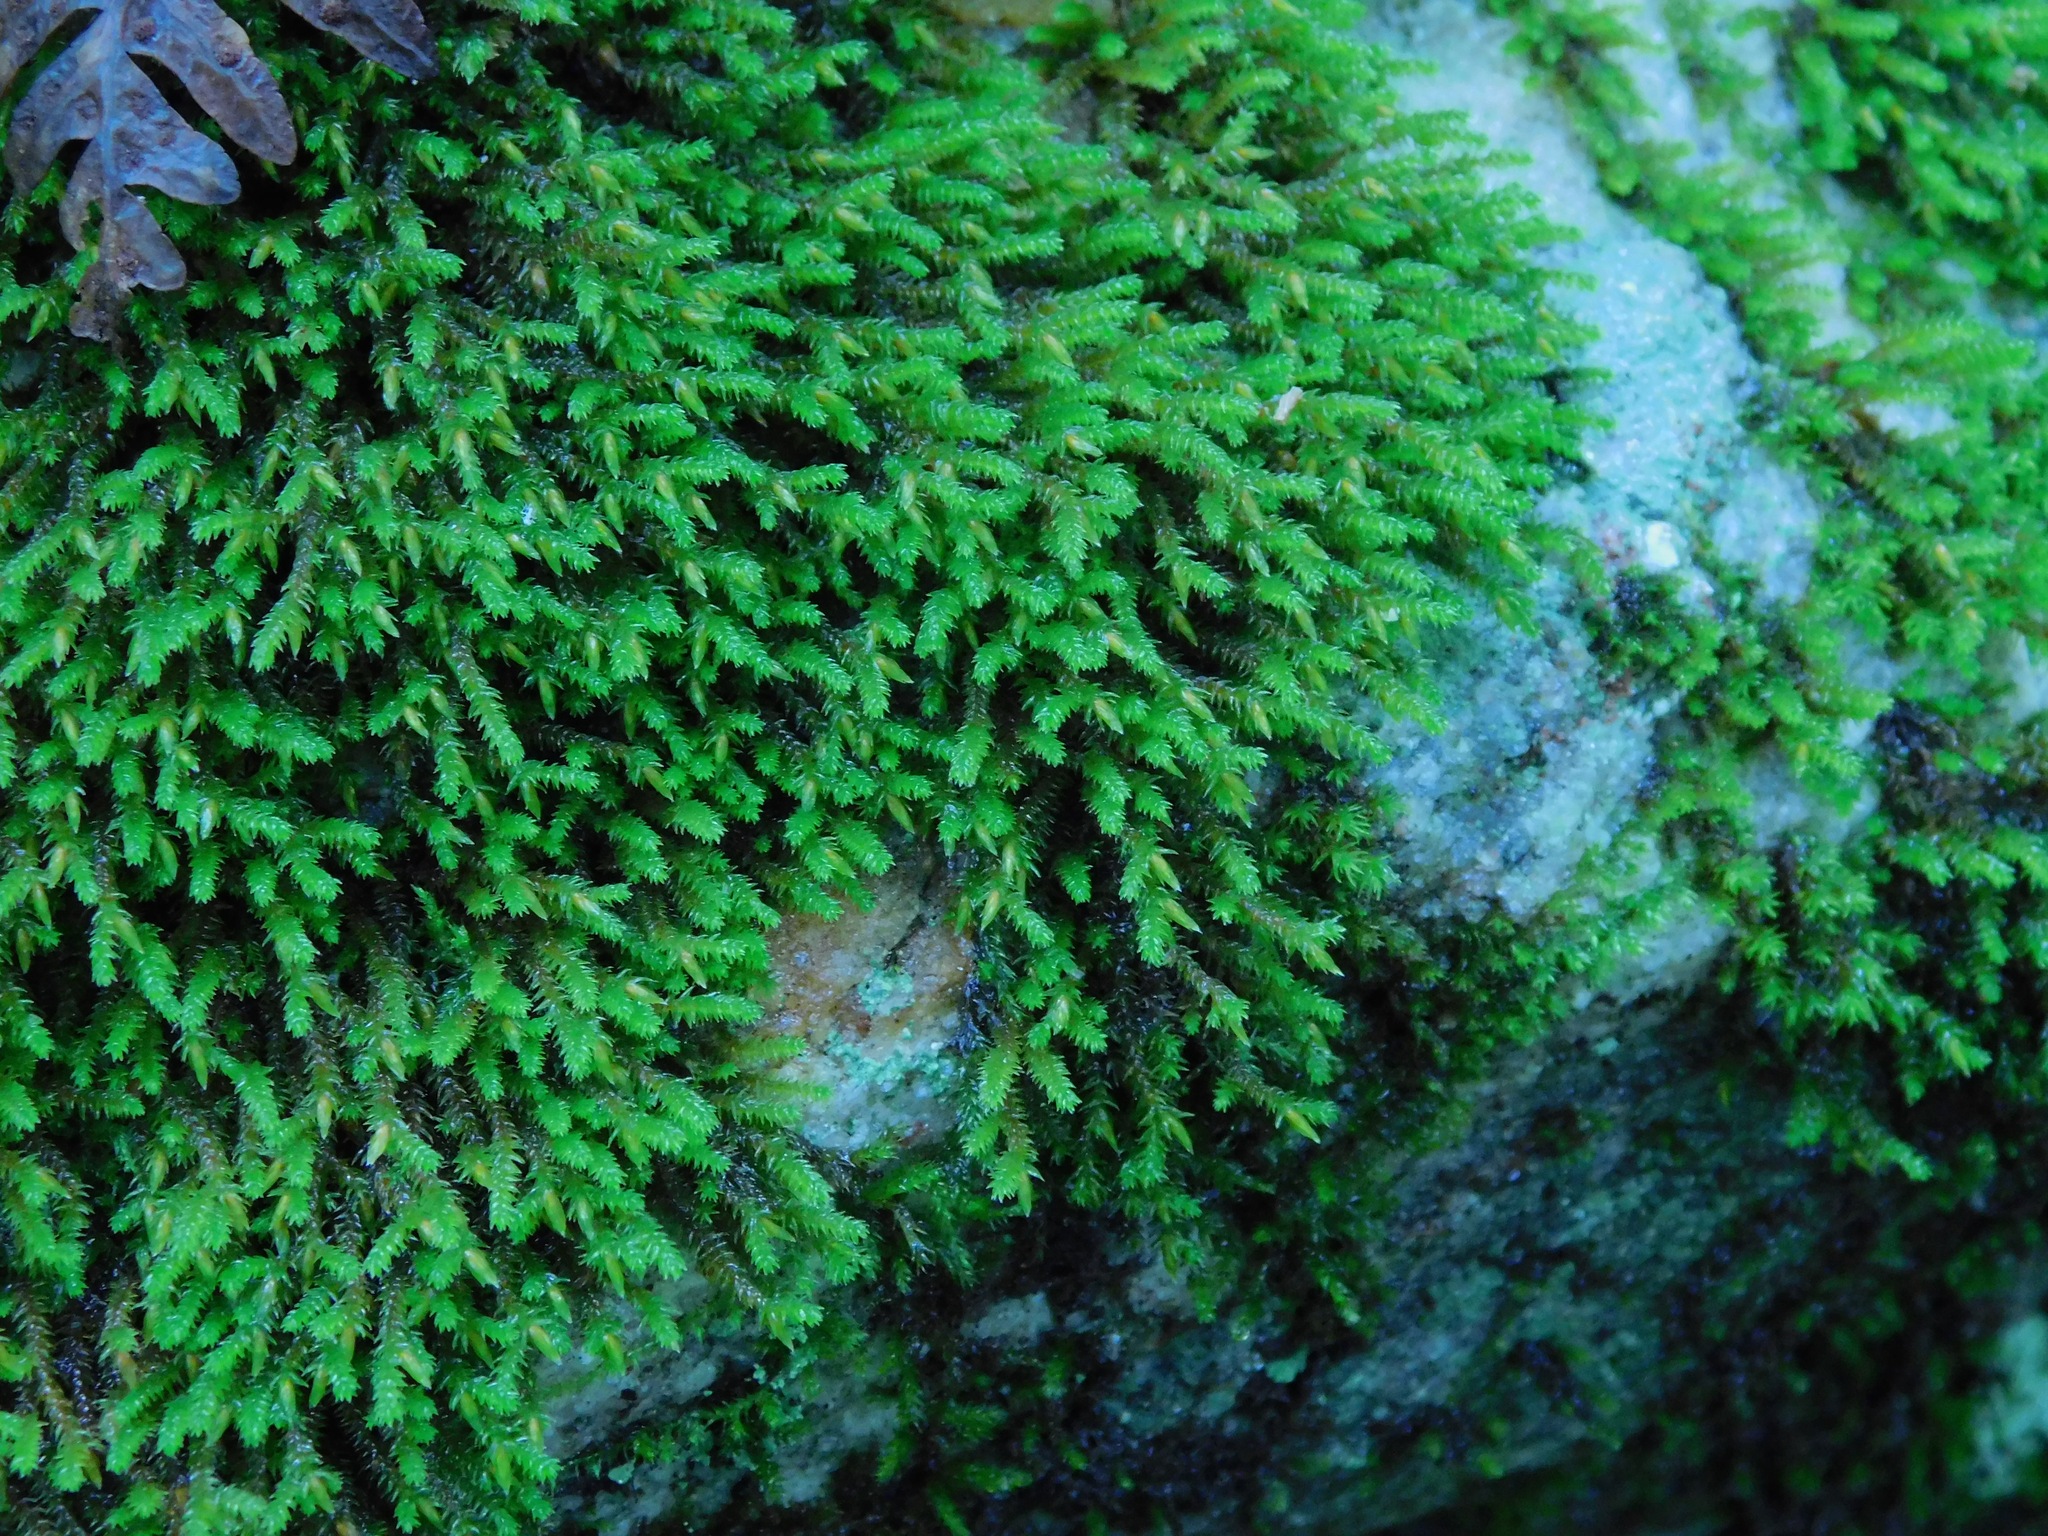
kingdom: Plantae
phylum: Bryophyta
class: Bryopsida
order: Hedwigiales
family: Hedwigiaceae
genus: Hedwigia
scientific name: Hedwigia ciliata
